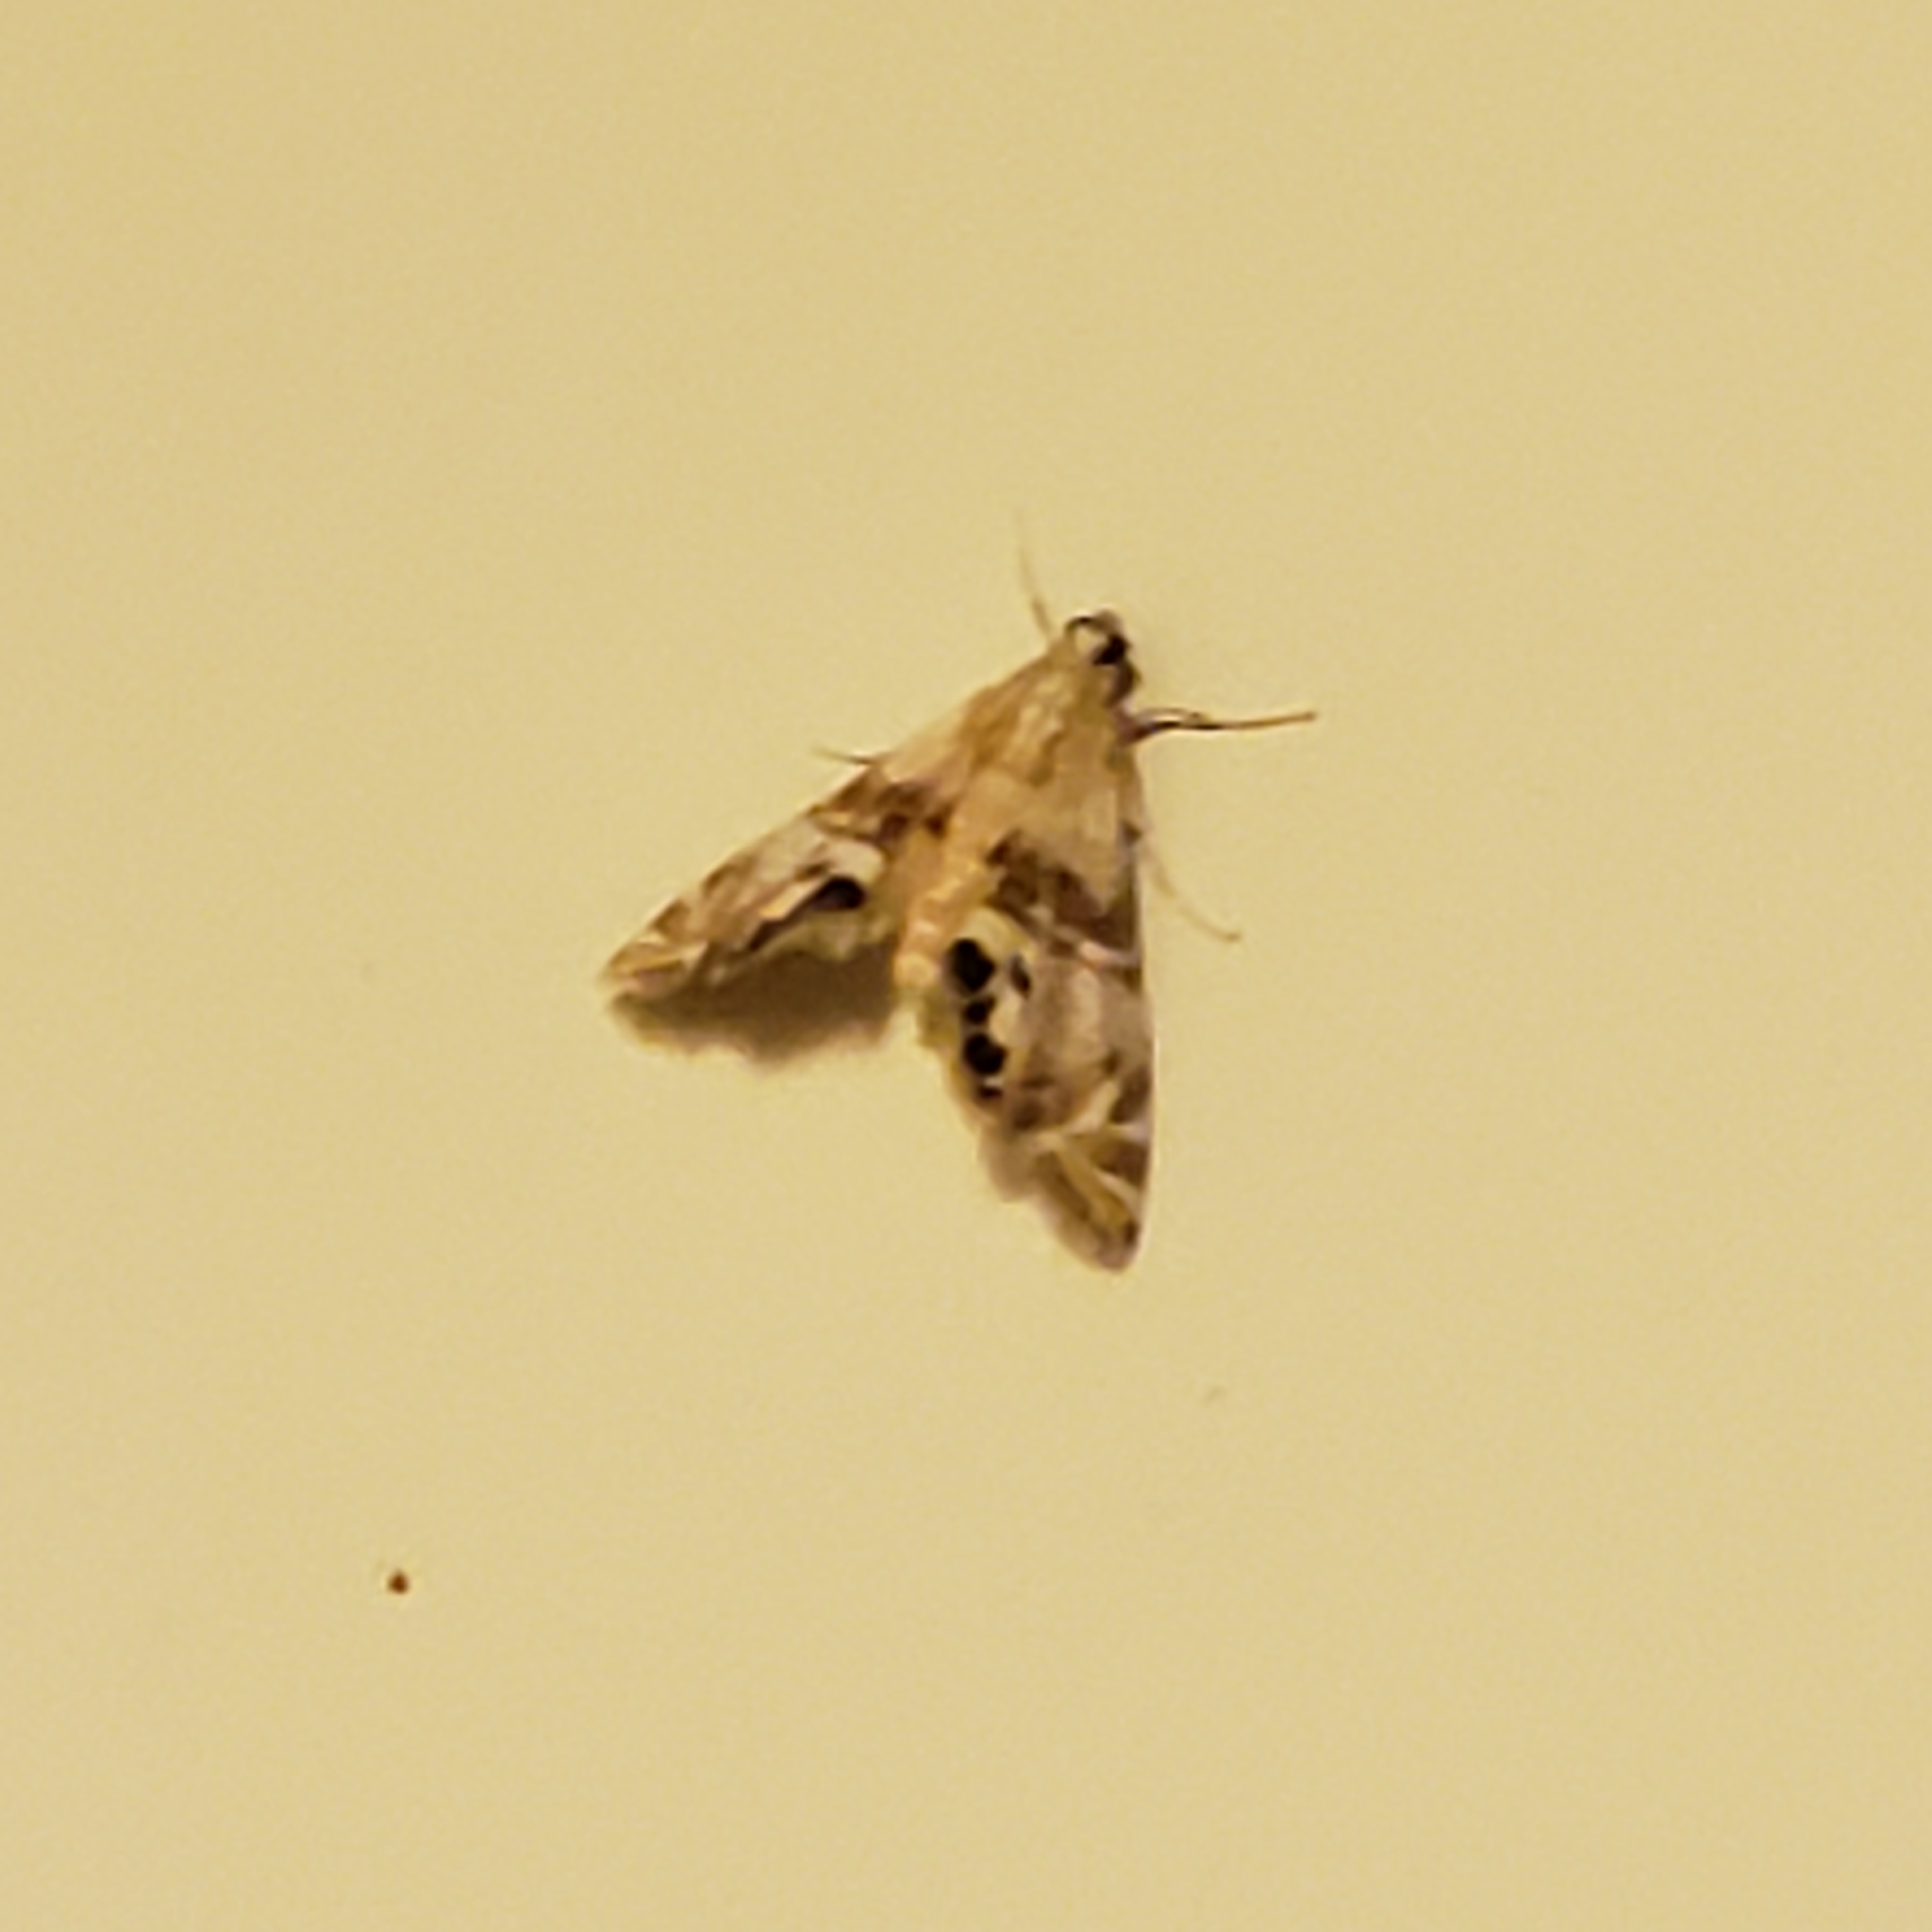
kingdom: Animalia
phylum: Arthropoda
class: Insecta
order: Lepidoptera
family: Crambidae
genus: Petrophila
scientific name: Petrophila bifascialis
